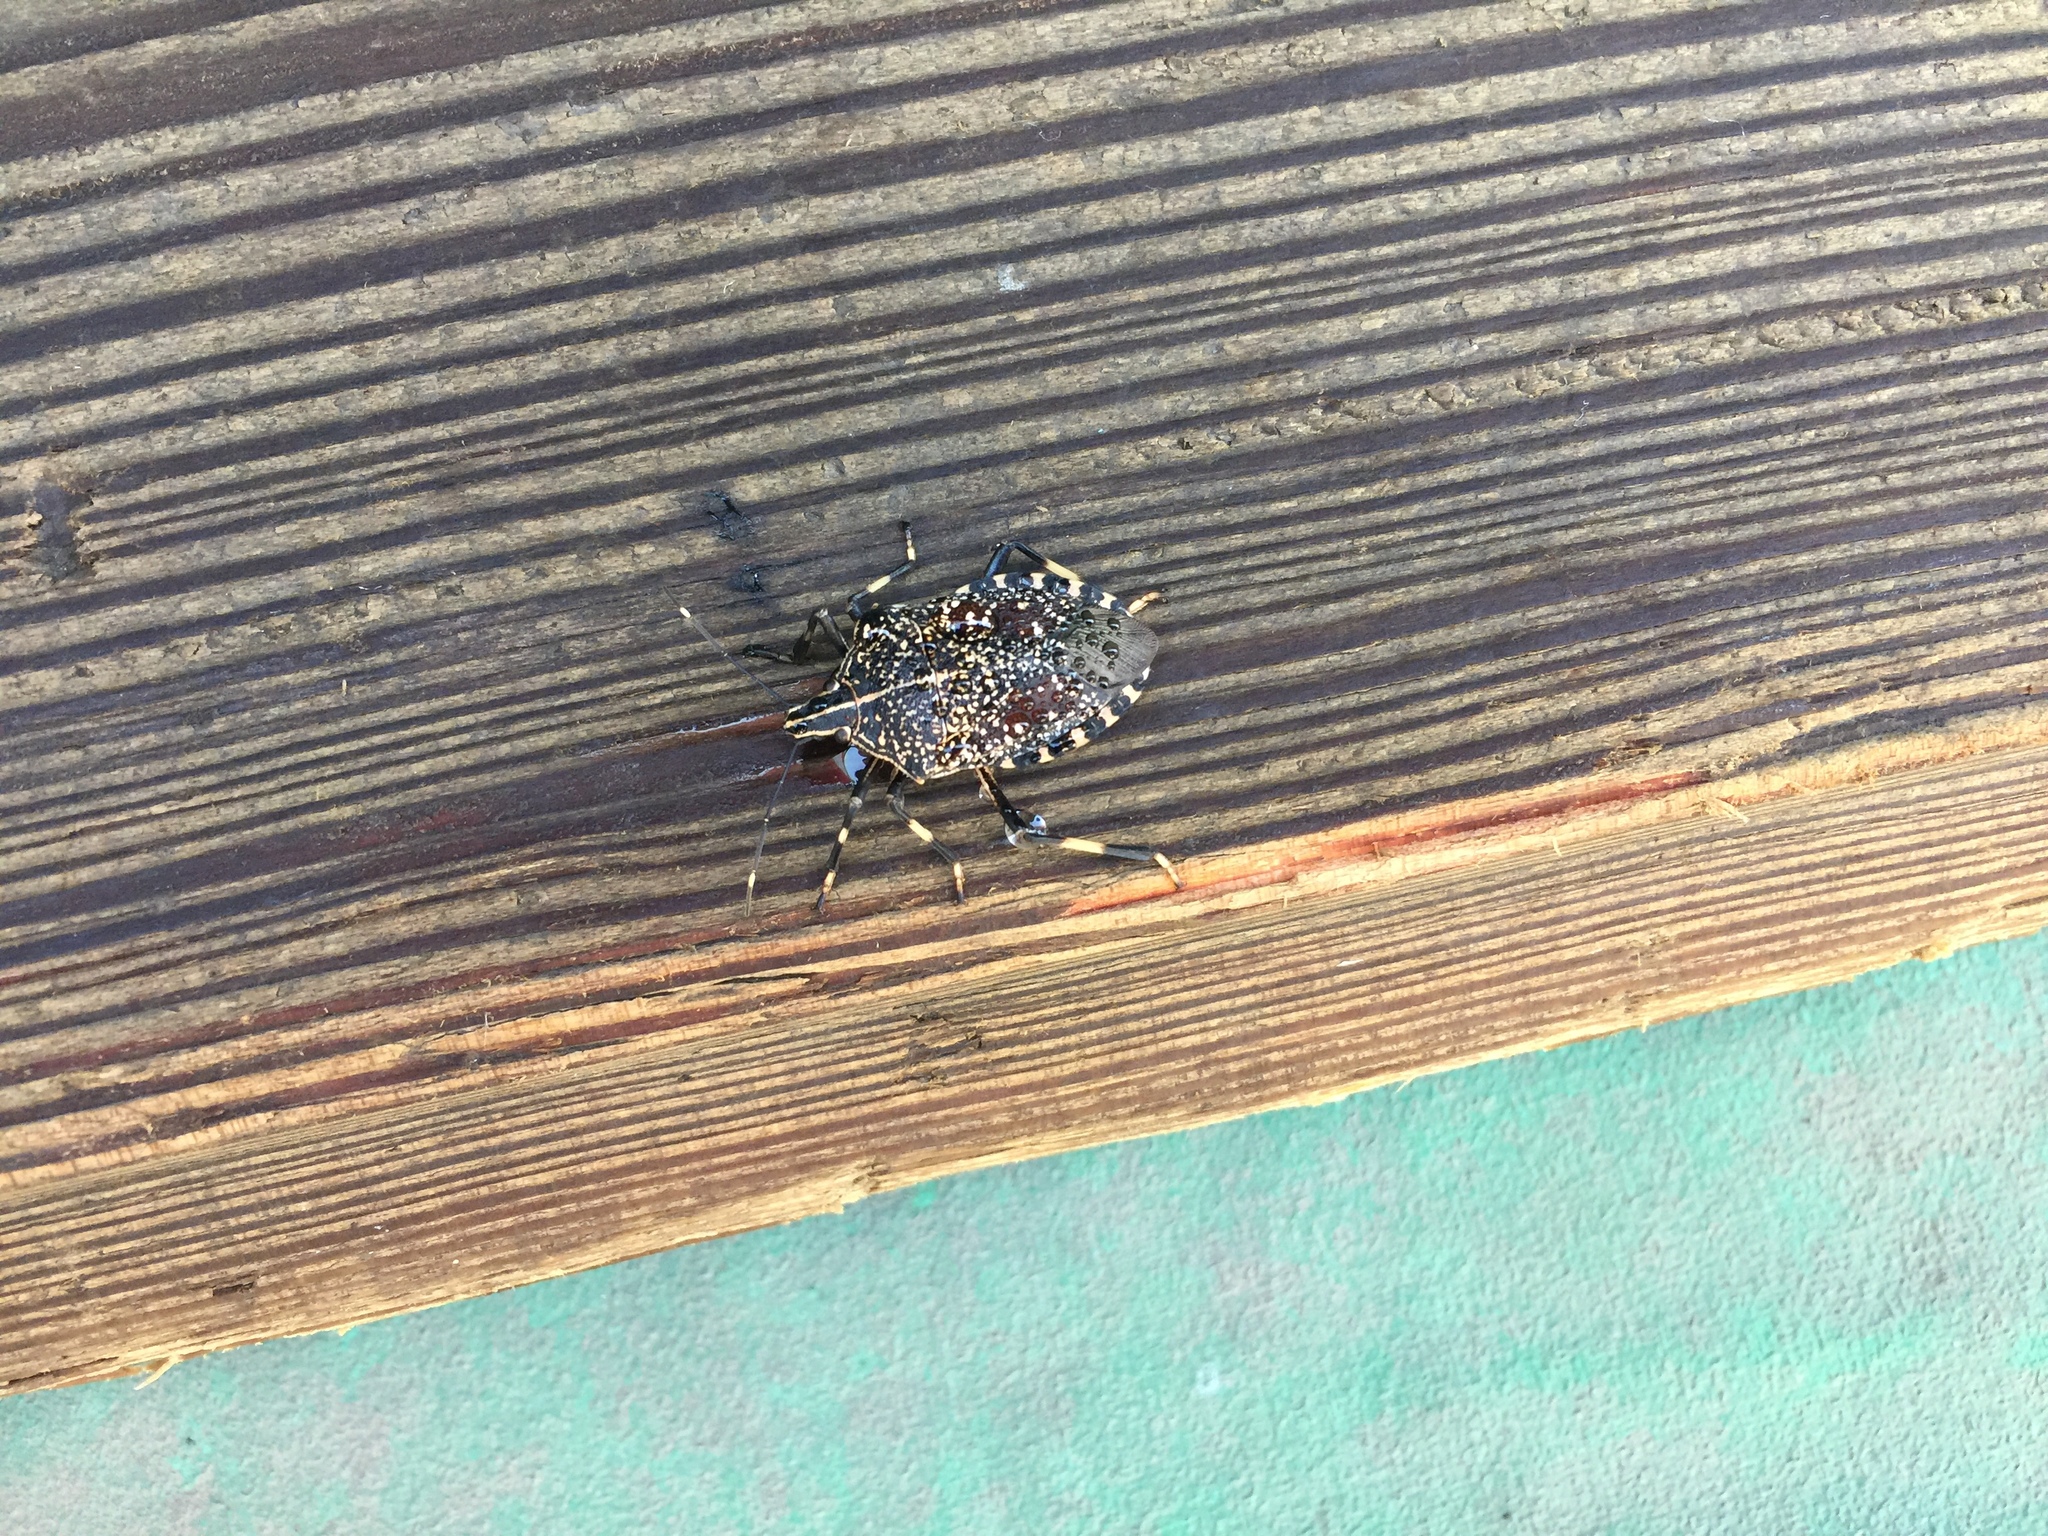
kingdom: Animalia
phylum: Arthropoda
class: Insecta
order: Hemiptera
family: Pentatomidae
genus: Erthesina
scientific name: Erthesina fullo
